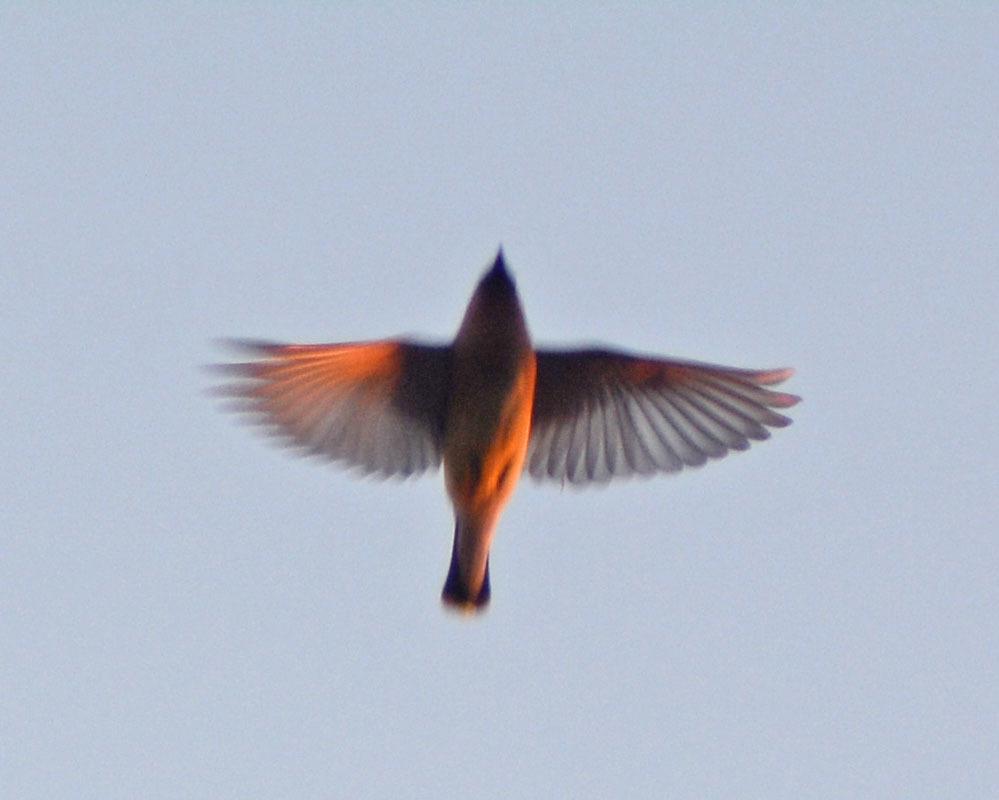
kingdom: Animalia
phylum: Chordata
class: Aves
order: Passeriformes
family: Bombycillidae
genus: Bombycilla
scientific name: Bombycilla cedrorum
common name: Cedar waxwing
